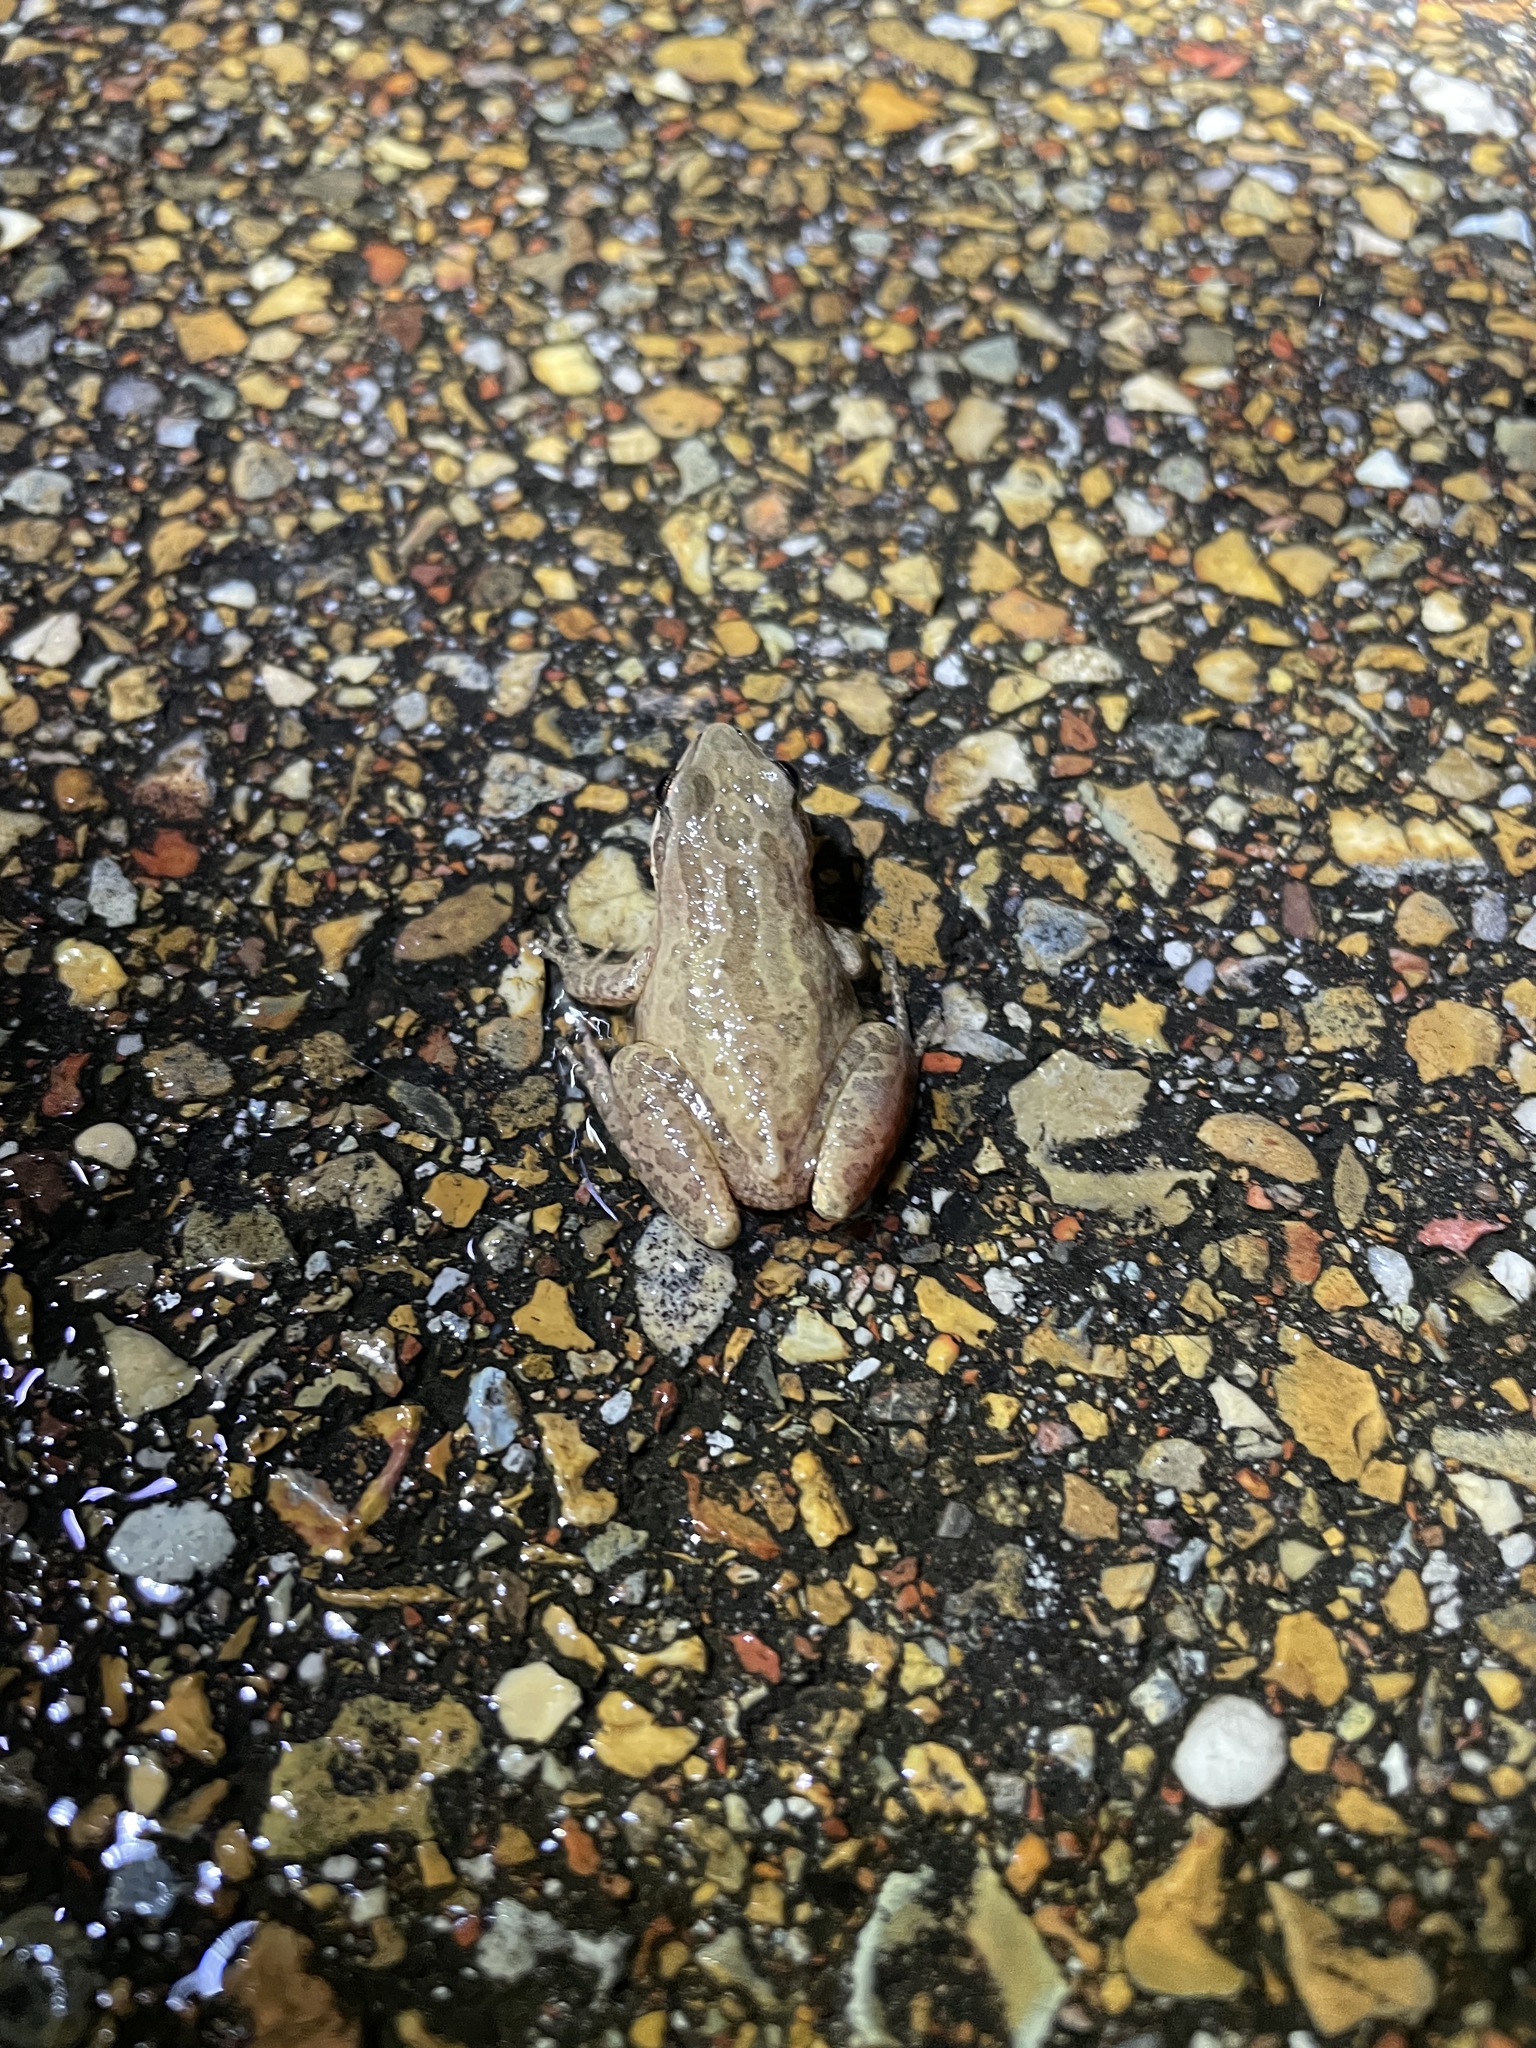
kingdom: Animalia
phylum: Chordata
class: Amphibia
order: Anura
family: Hylidae
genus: Pseudacris
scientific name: Pseudacris fouquettei
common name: Cajun chorus frog
